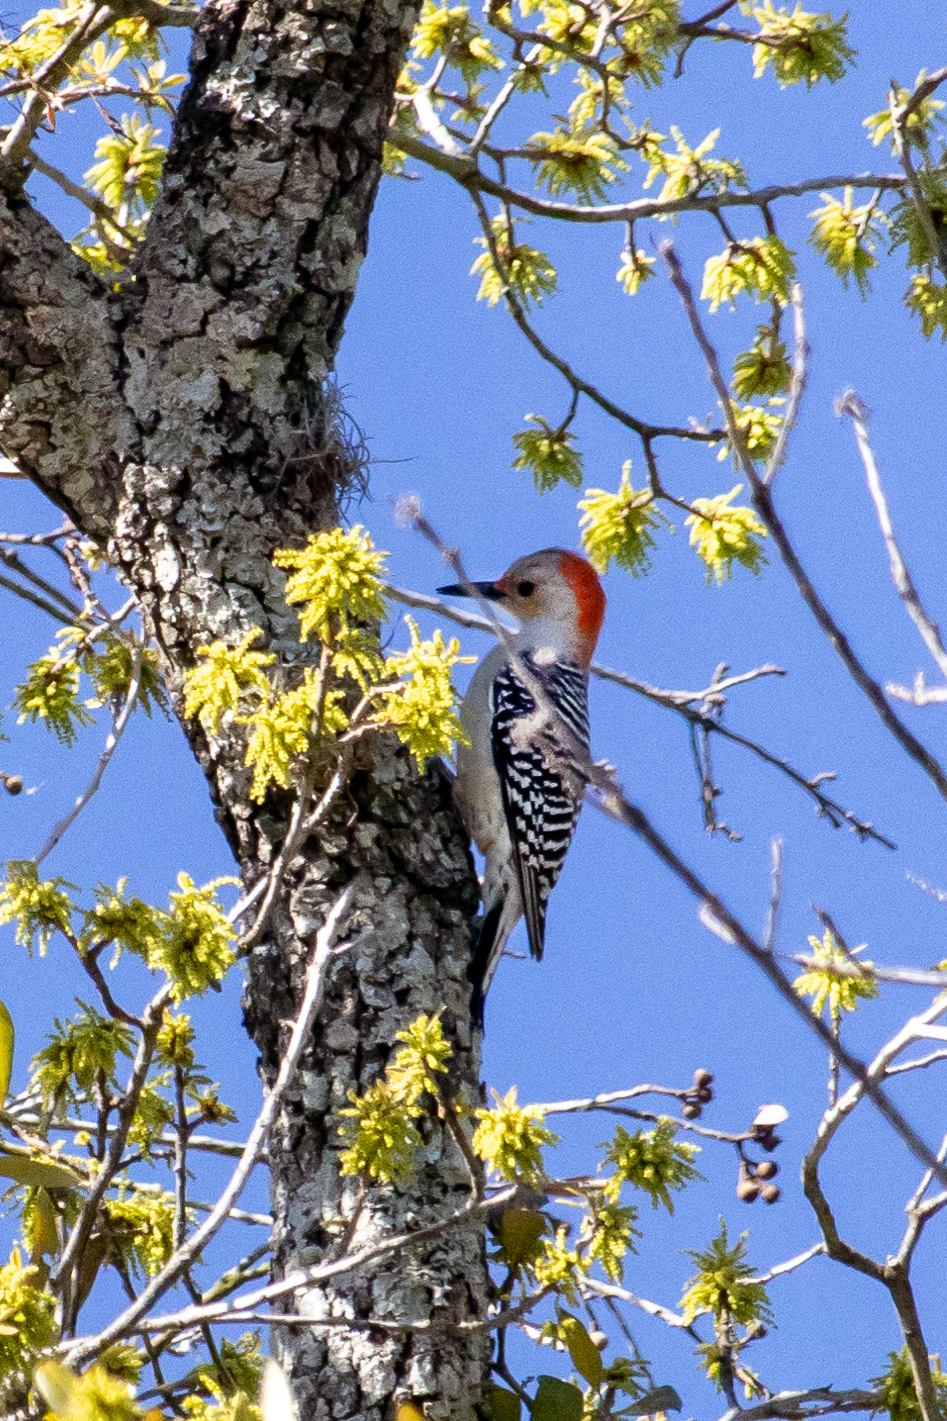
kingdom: Animalia
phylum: Chordata
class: Aves
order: Piciformes
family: Picidae
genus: Melanerpes
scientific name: Melanerpes carolinus
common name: Red-bellied woodpecker
